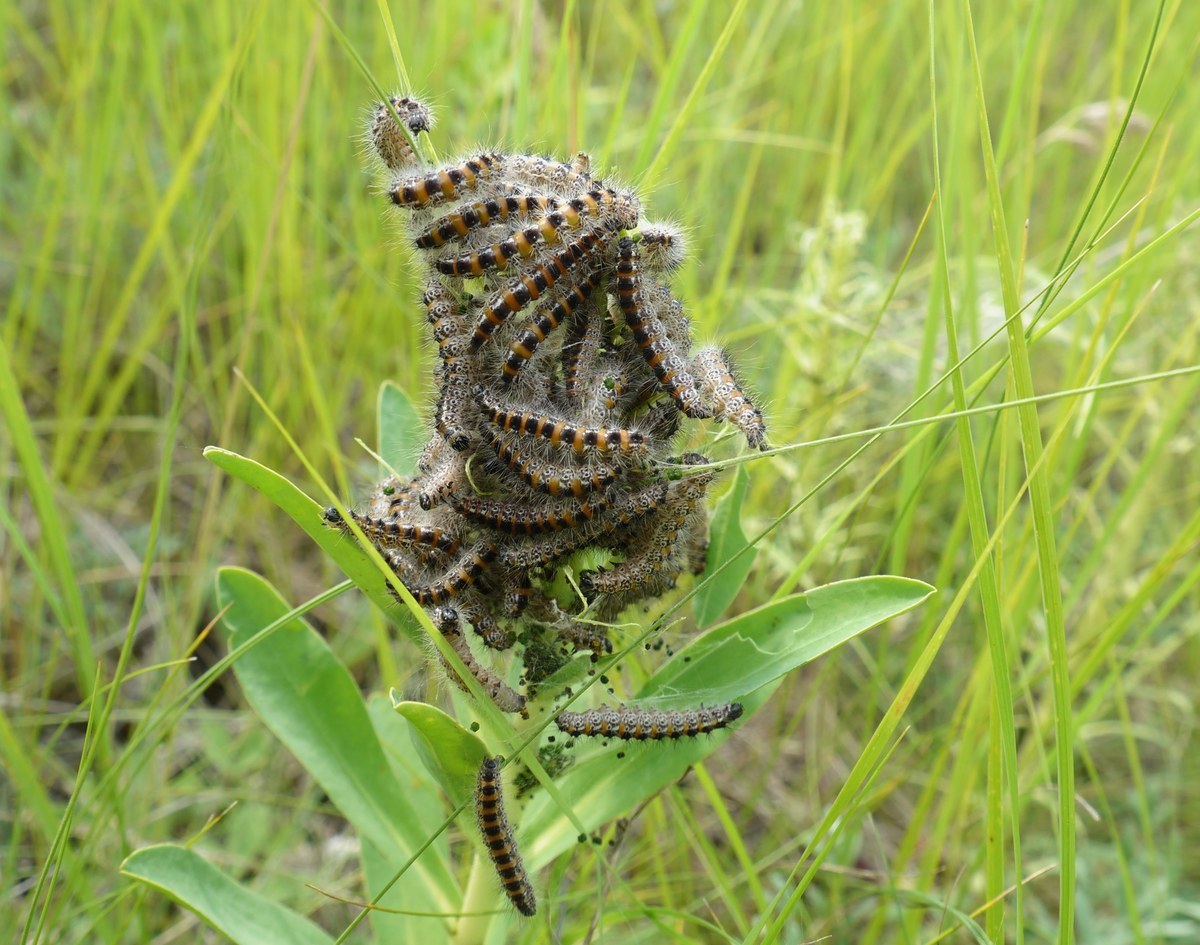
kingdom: Animalia
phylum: Arthropoda
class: Insecta
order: Lepidoptera
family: Noctuidae
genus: Oxicesta
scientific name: Oxicesta geographica
